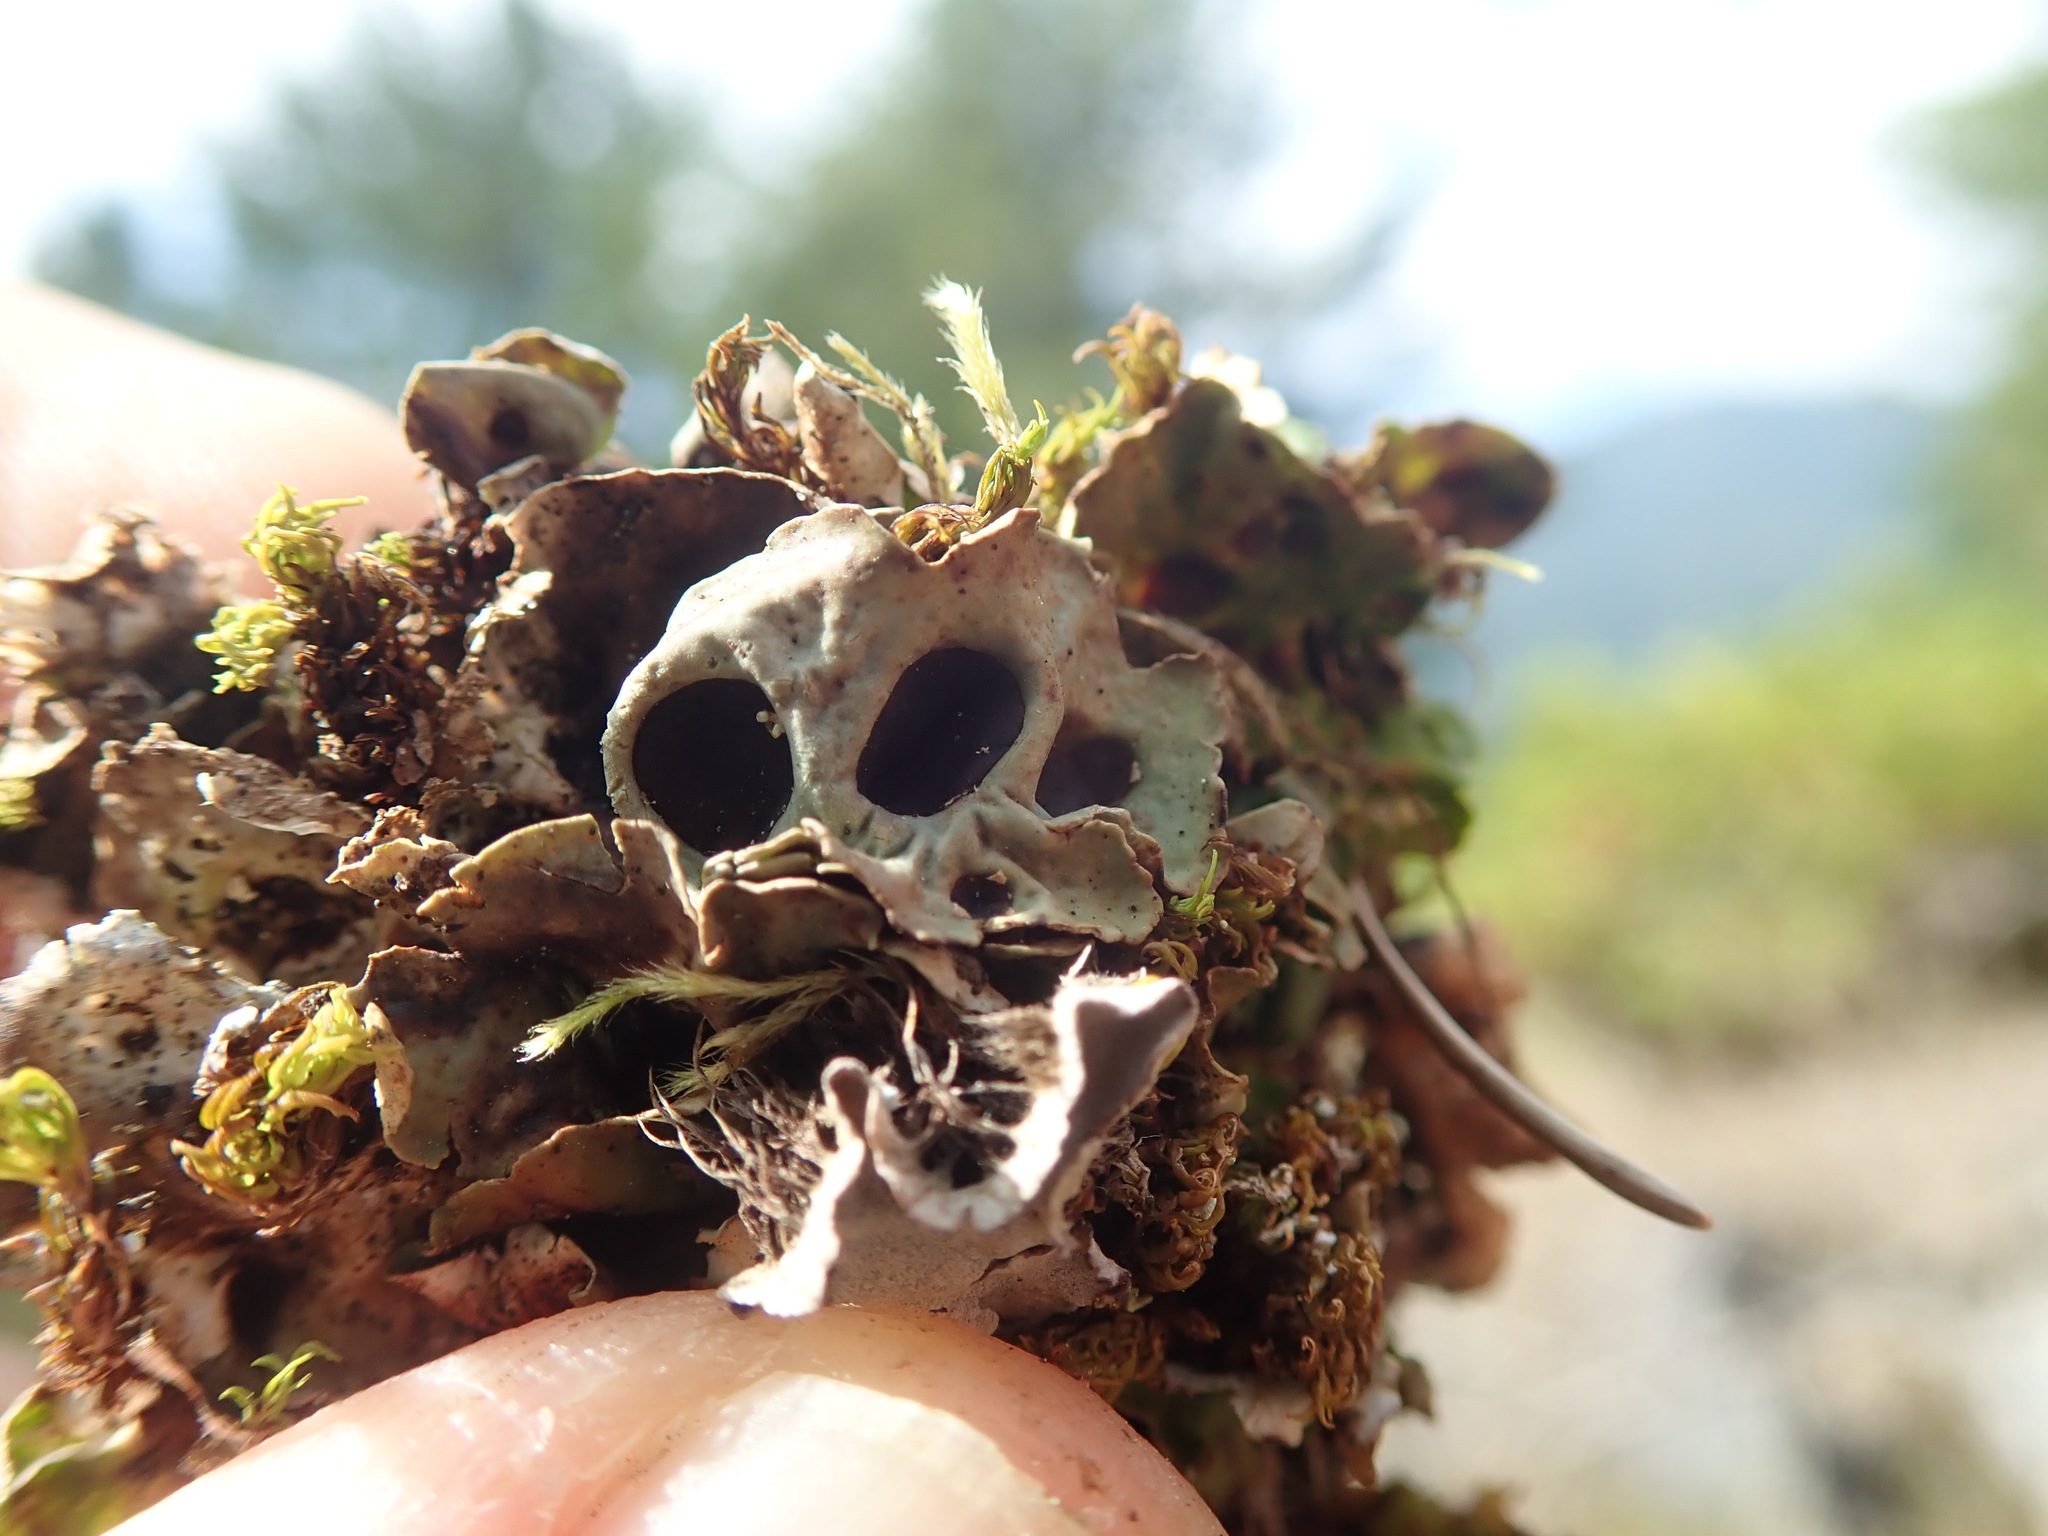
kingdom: Fungi
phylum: Ascomycota
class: Lecanoromycetes
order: Peltigerales
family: Peltigeraceae
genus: Solorina
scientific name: Solorina saccata
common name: Common chocolate chip lichen
